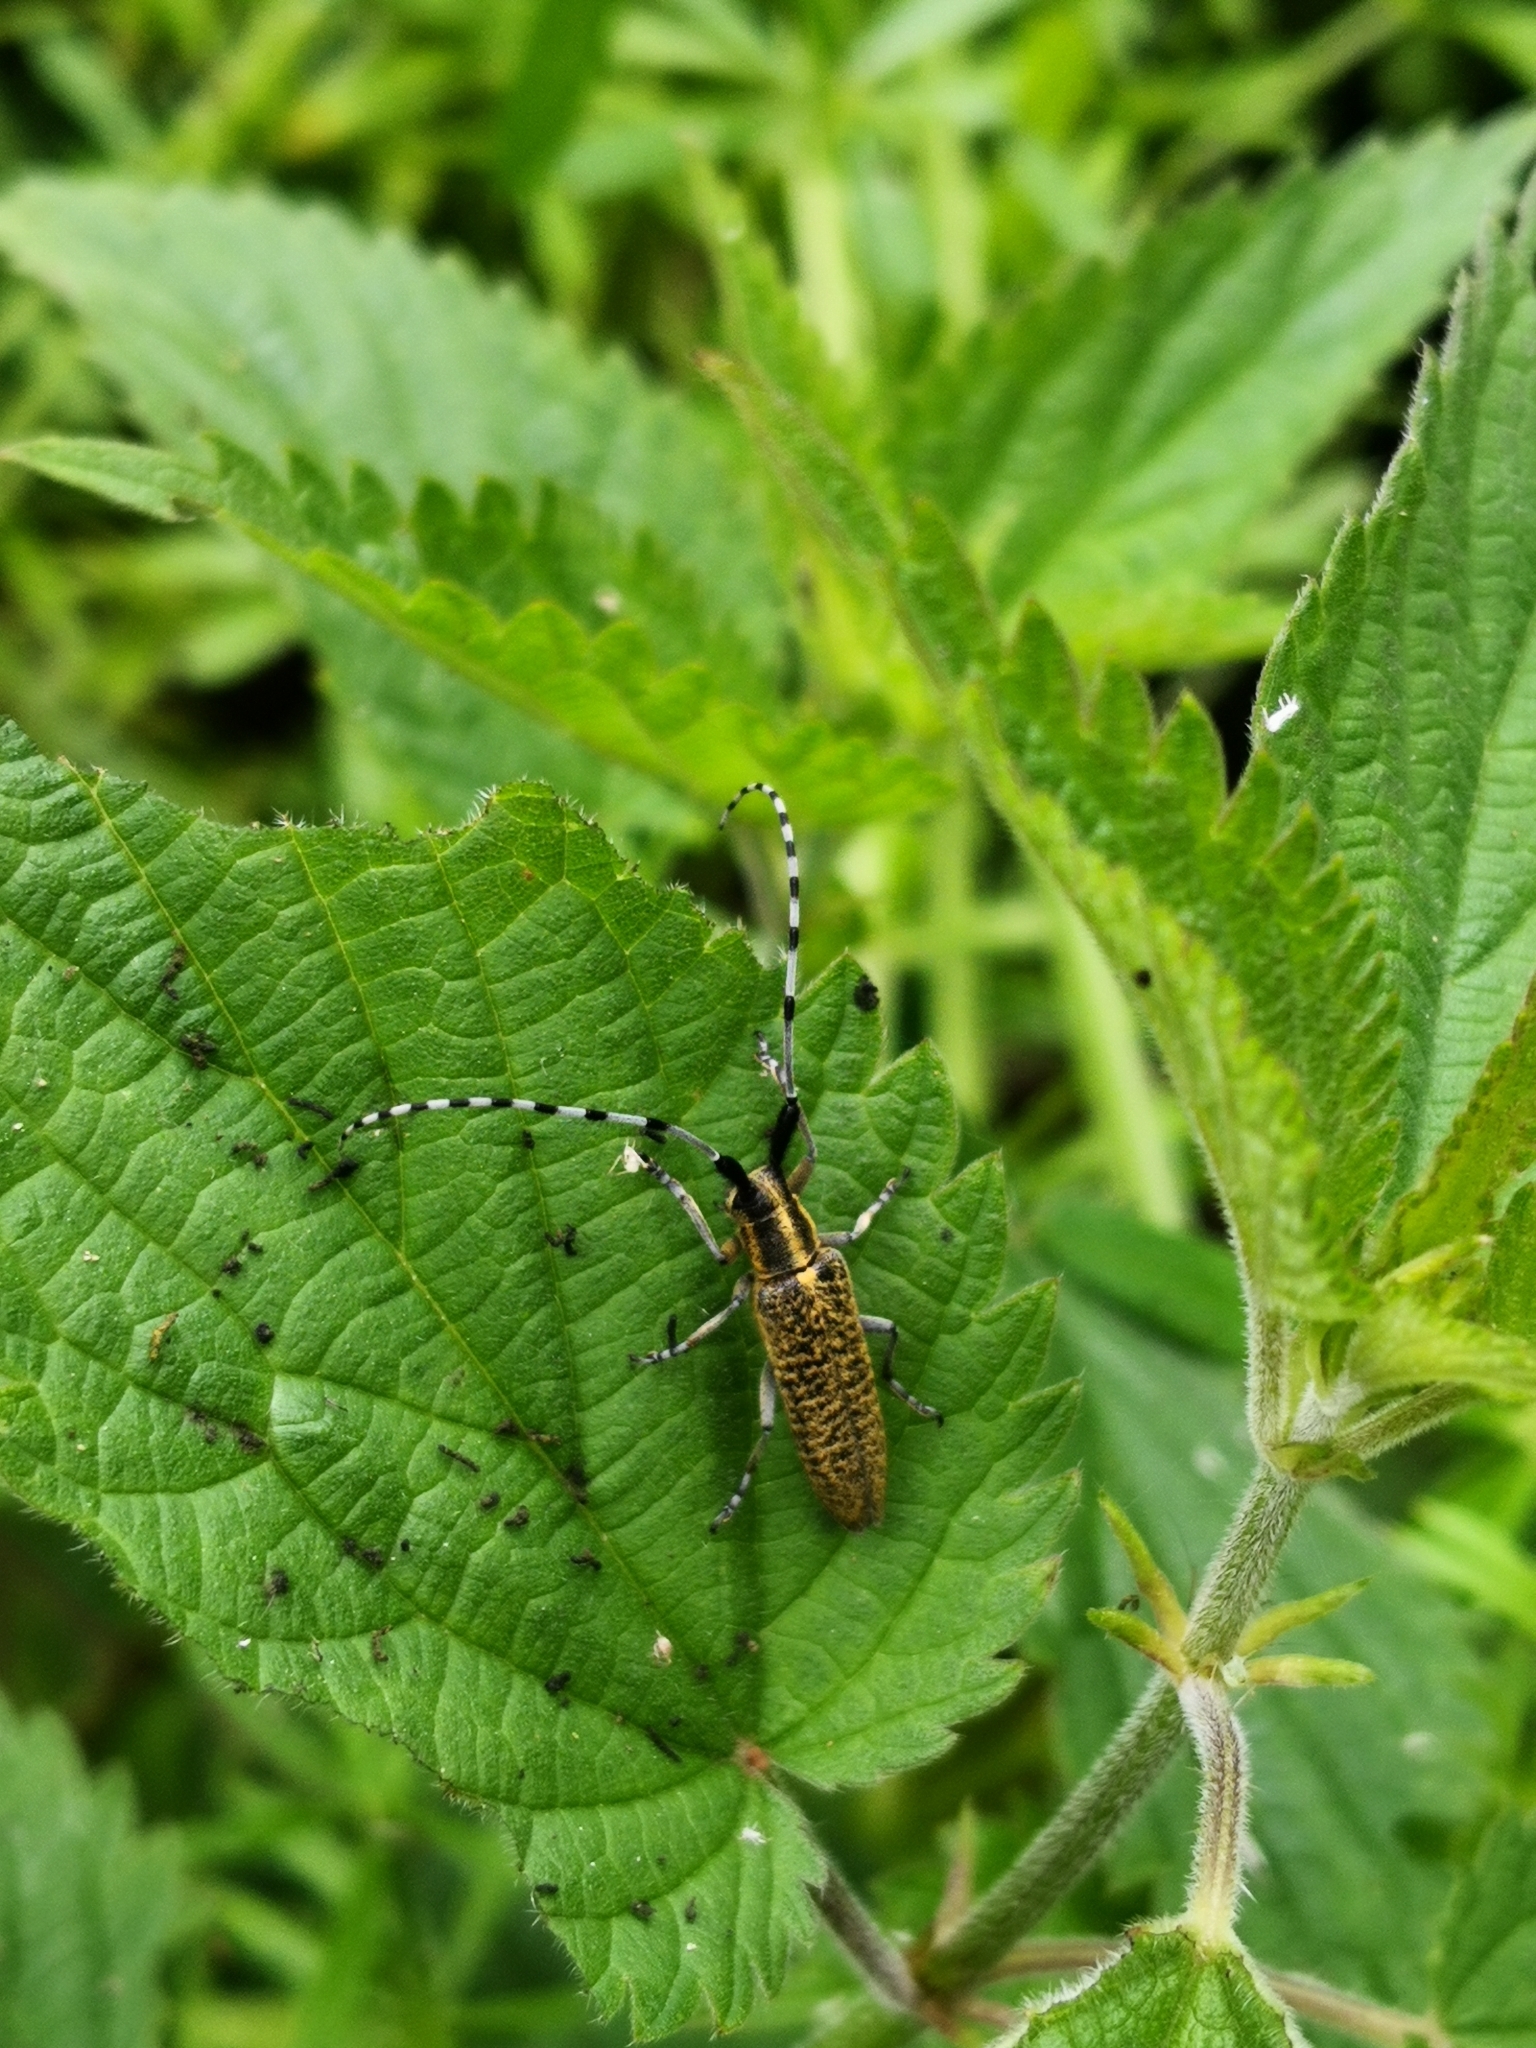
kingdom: Animalia
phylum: Arthropoda
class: Insecta
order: Coleoptera
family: Cerambycidae
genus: Agapanthia
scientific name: Agapanthia villosoviridescens
